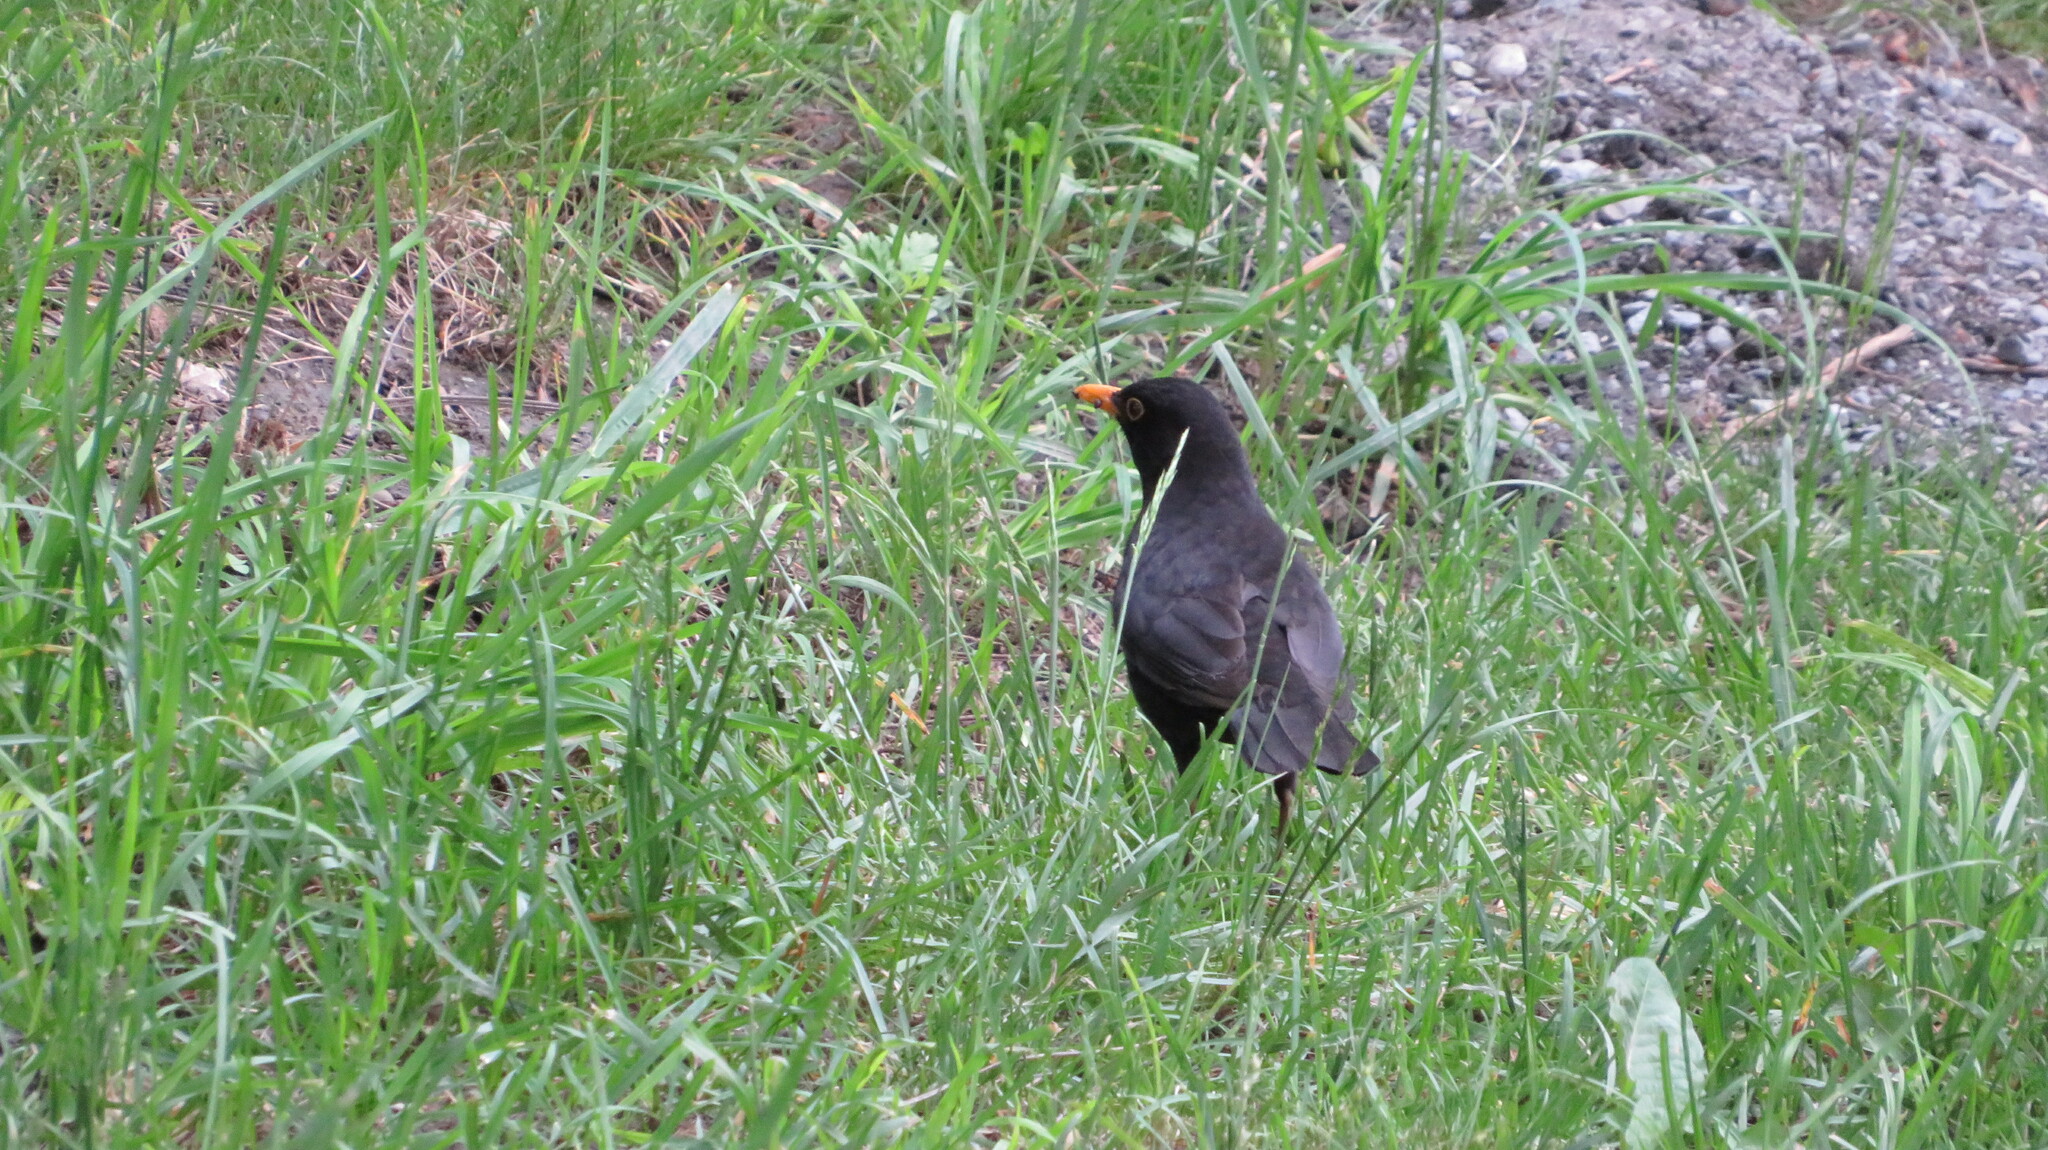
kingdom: Animalia
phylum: Chordata
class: Aves
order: Passeriformes
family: Turdidae
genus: Turdus
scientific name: Turdus merula
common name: Common blackbird
